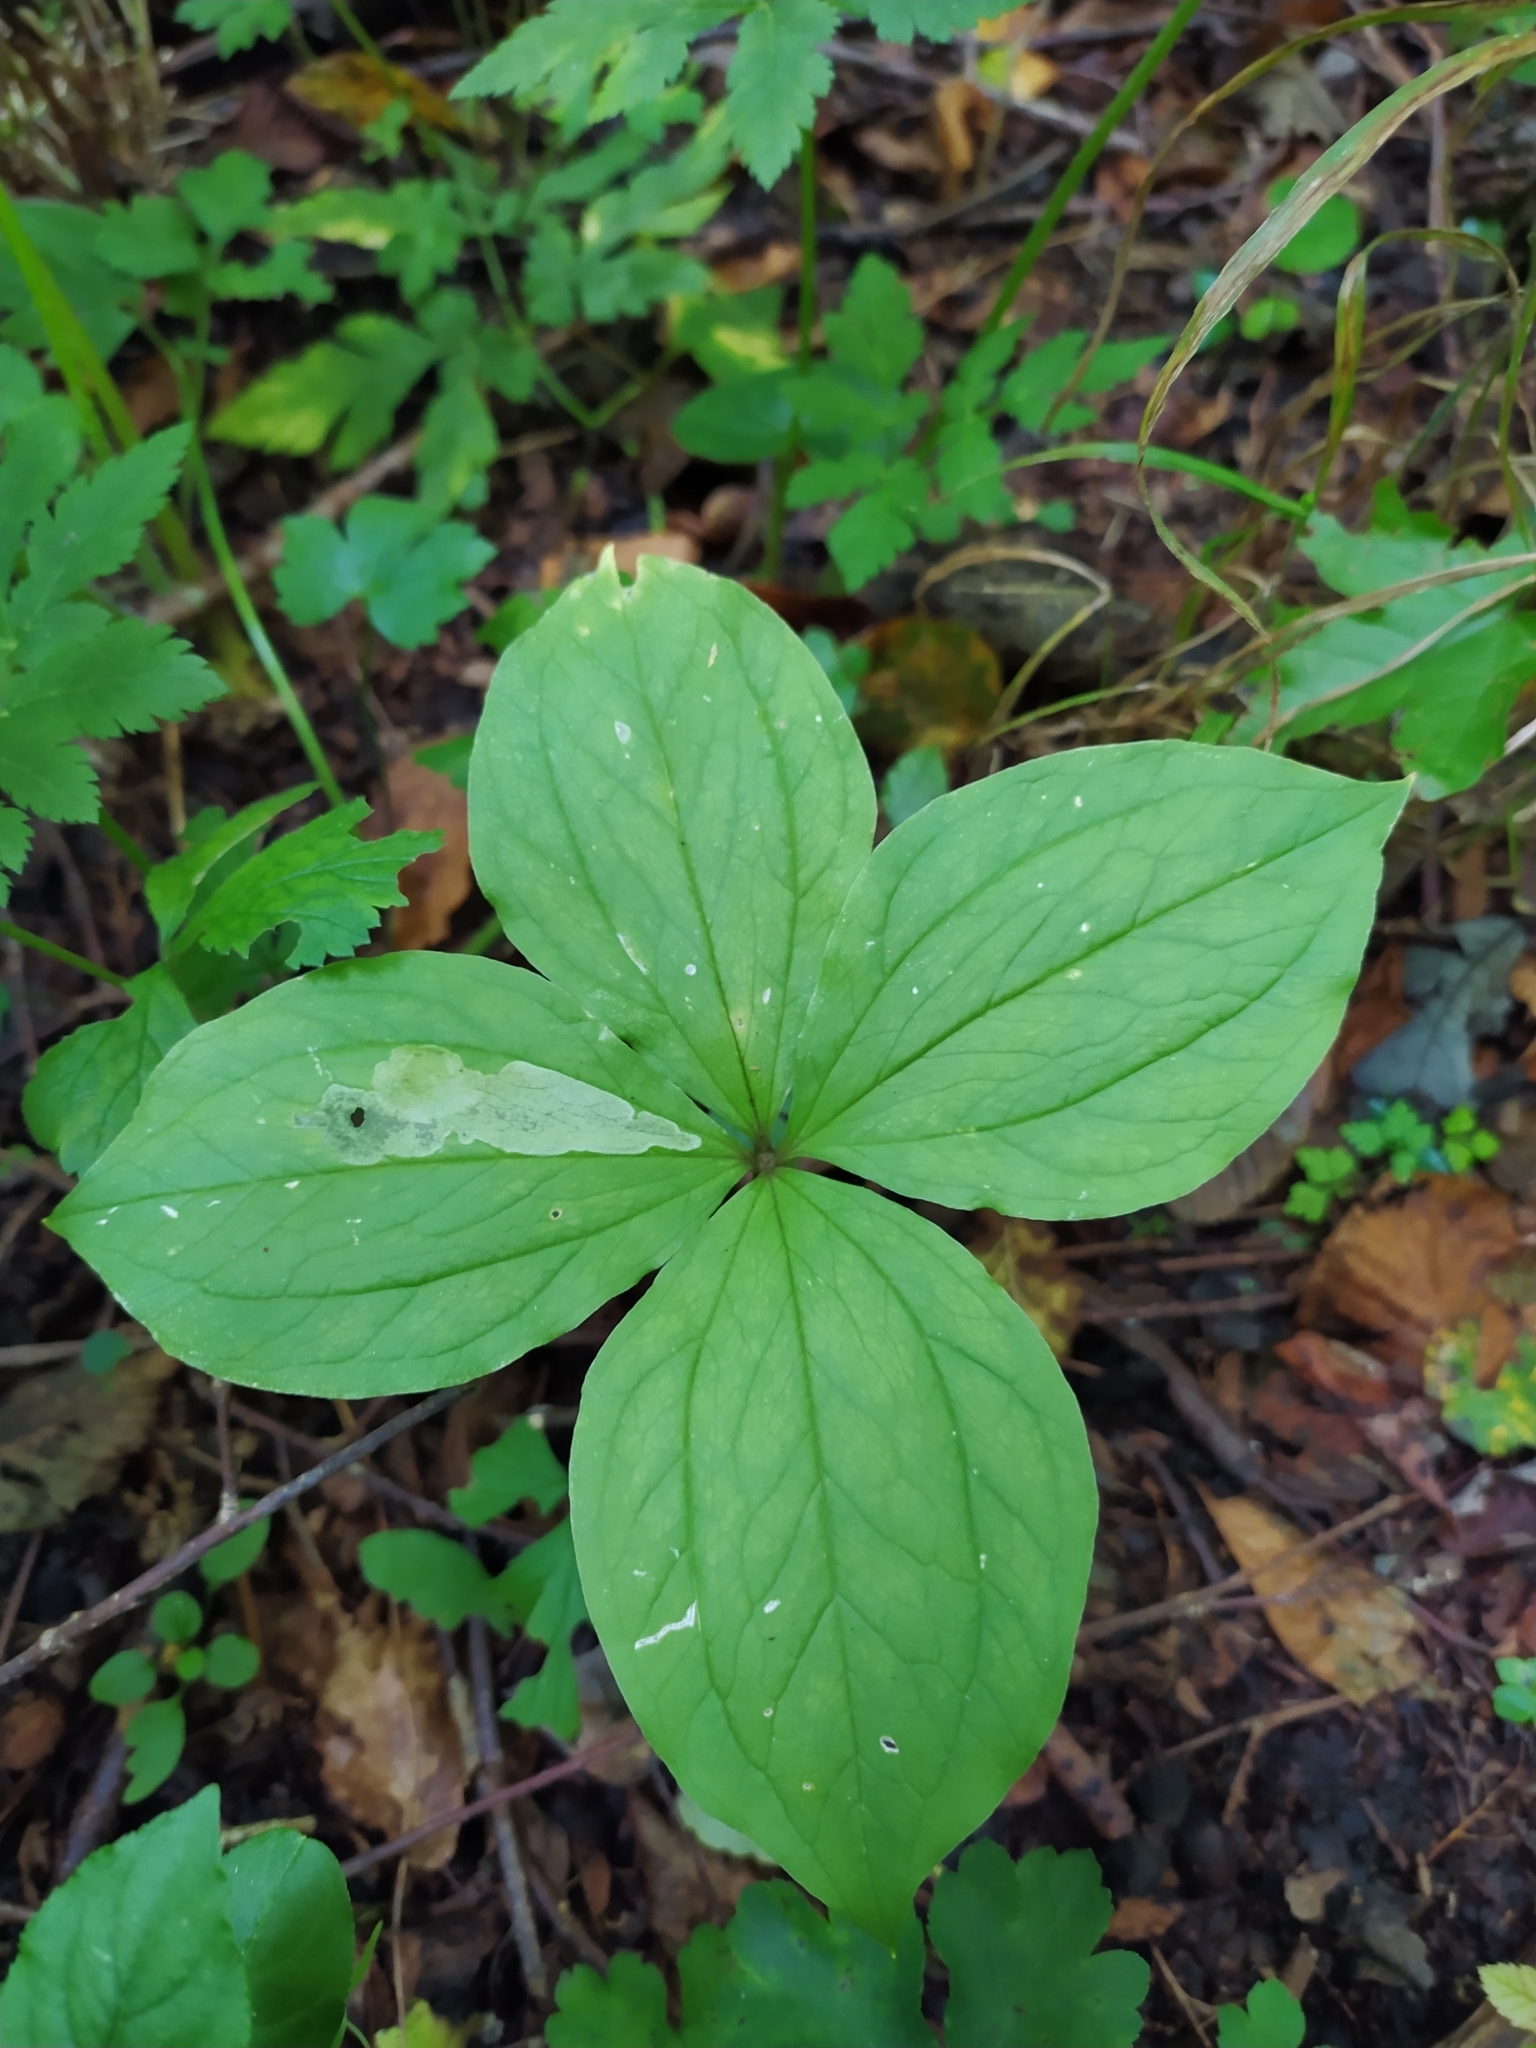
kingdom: Plantae
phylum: Tracheophyta
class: Liliopsida
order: Liliales
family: Melanthiaceae
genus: Paris
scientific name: Paris quadrifolia
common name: Herb-paris
